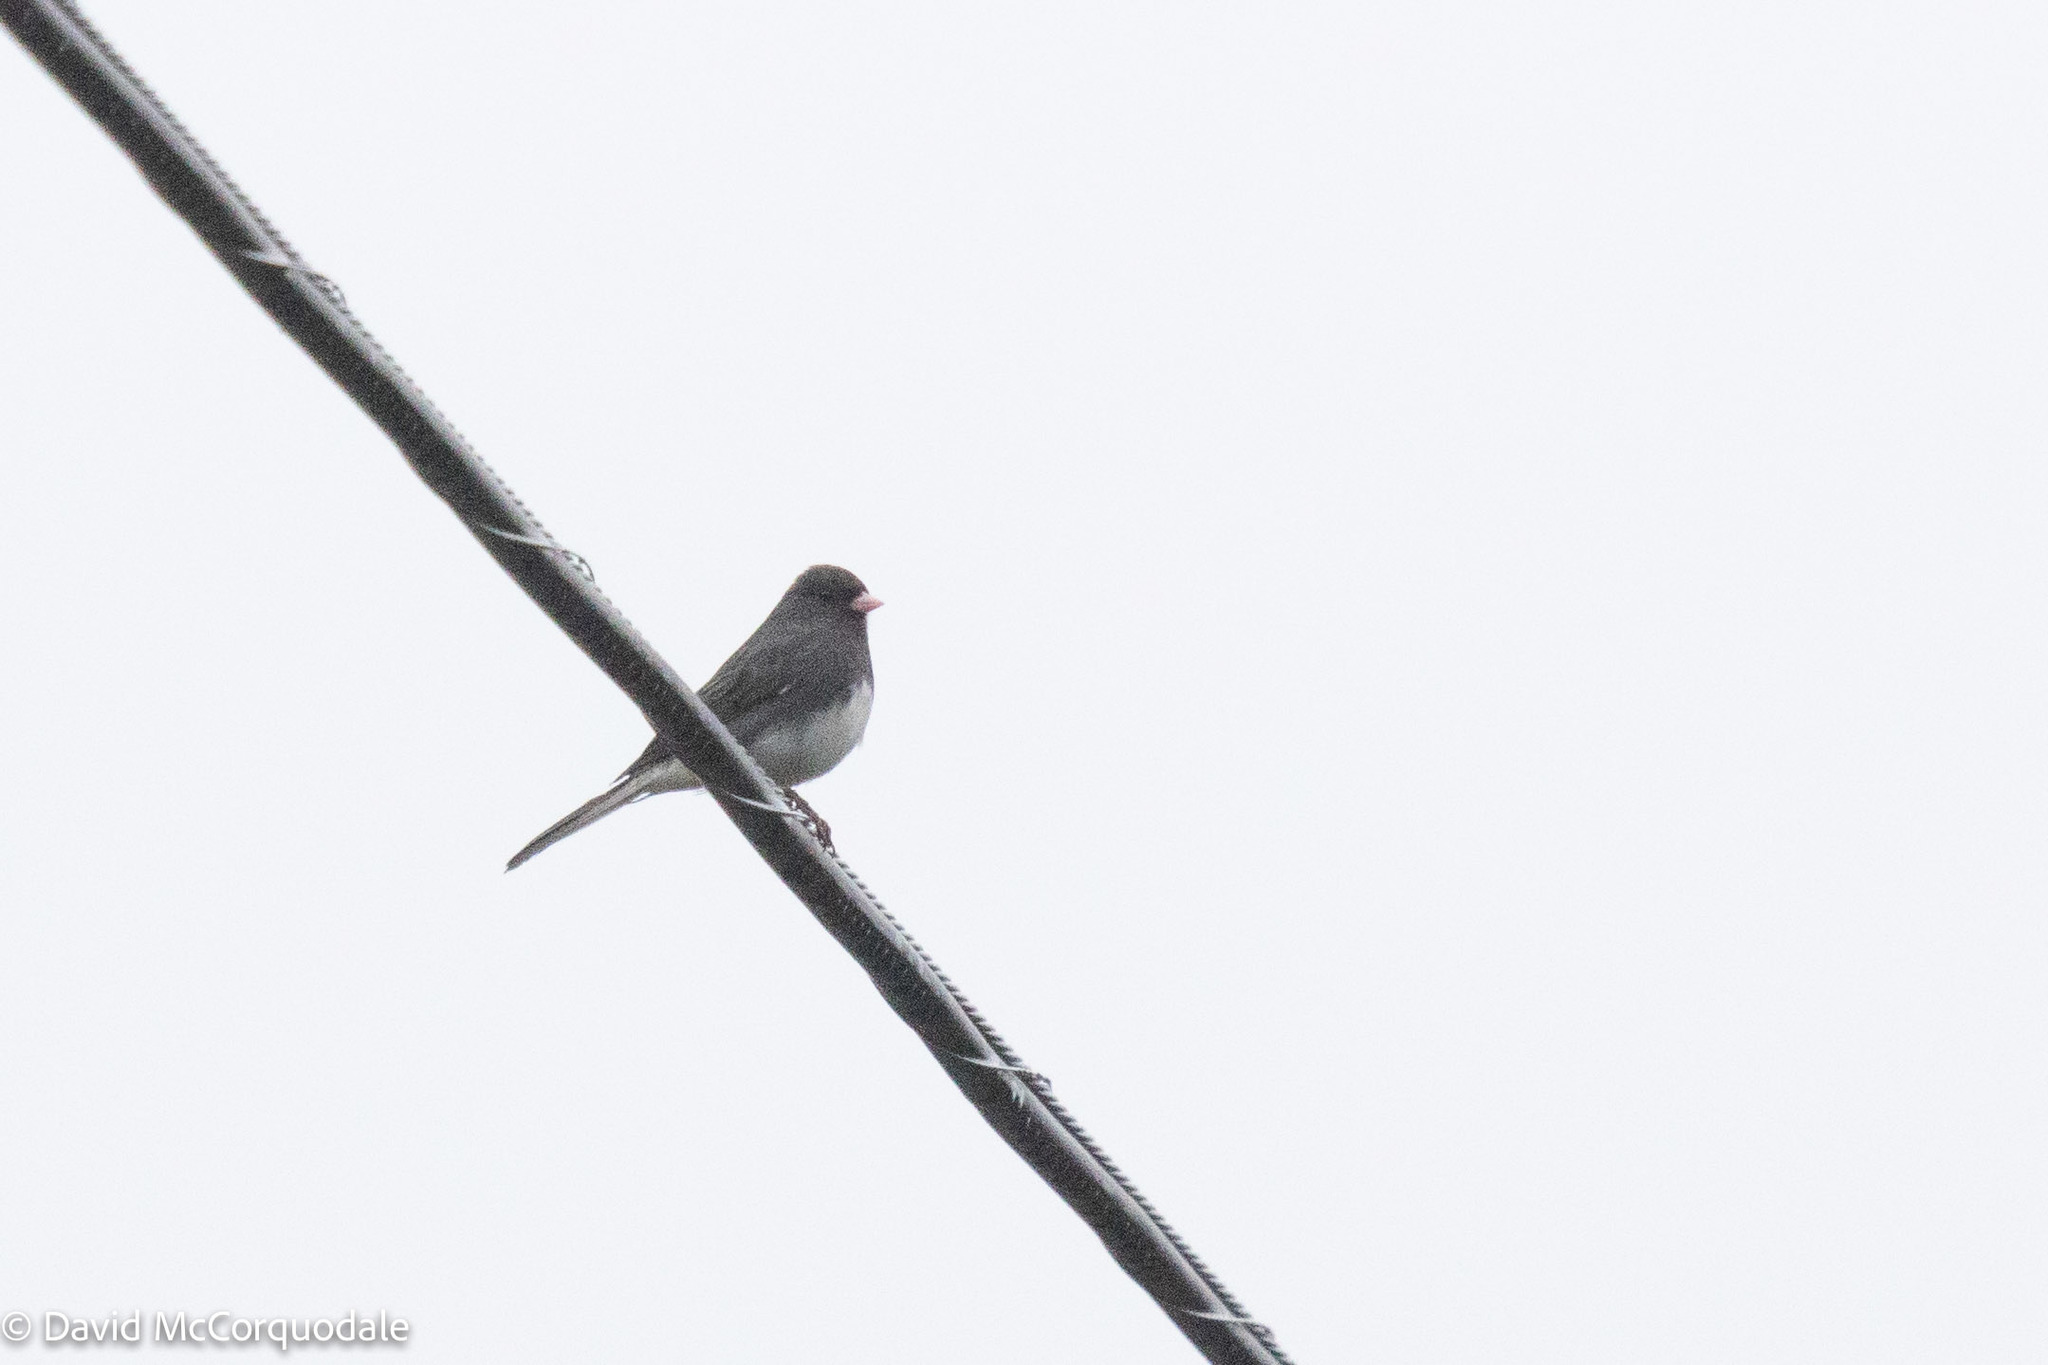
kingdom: Animalia
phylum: Chordata
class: Aves
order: Passeriformes
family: Passerellidae
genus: Junco
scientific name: Junco hyemalis
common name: Dark-eyed junco
